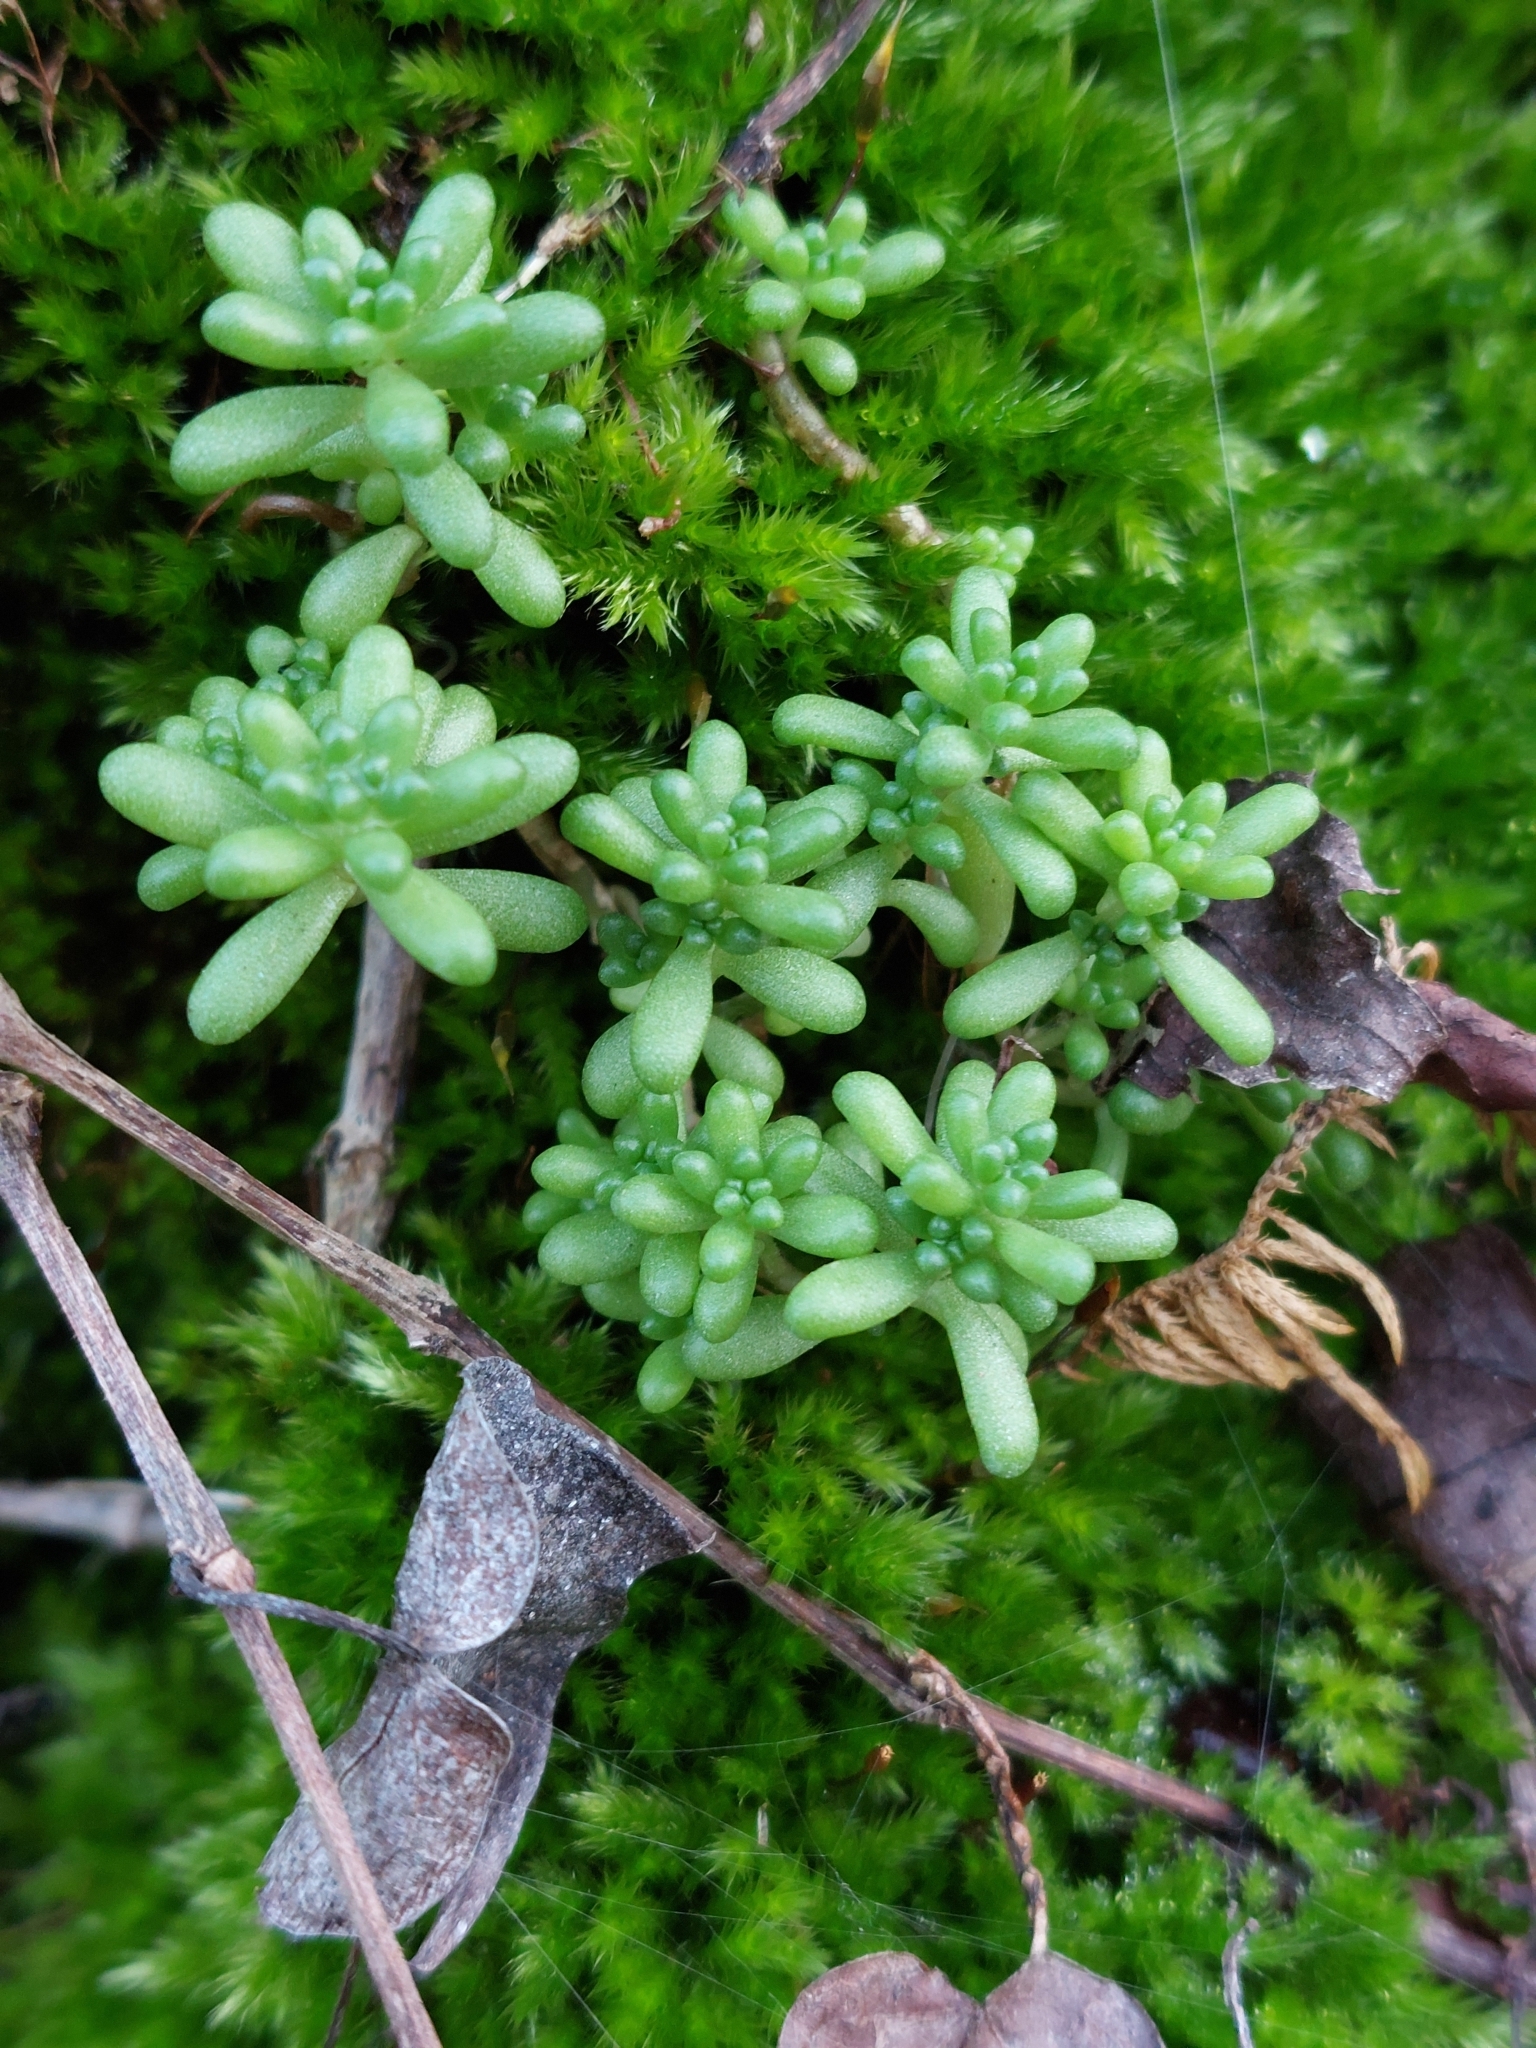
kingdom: Plantae
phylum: Tracheophyta
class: Magnoliopsida
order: Saxifragales
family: Crassulaceae
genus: Sedum
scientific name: Sedum album
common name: White stonecrop
